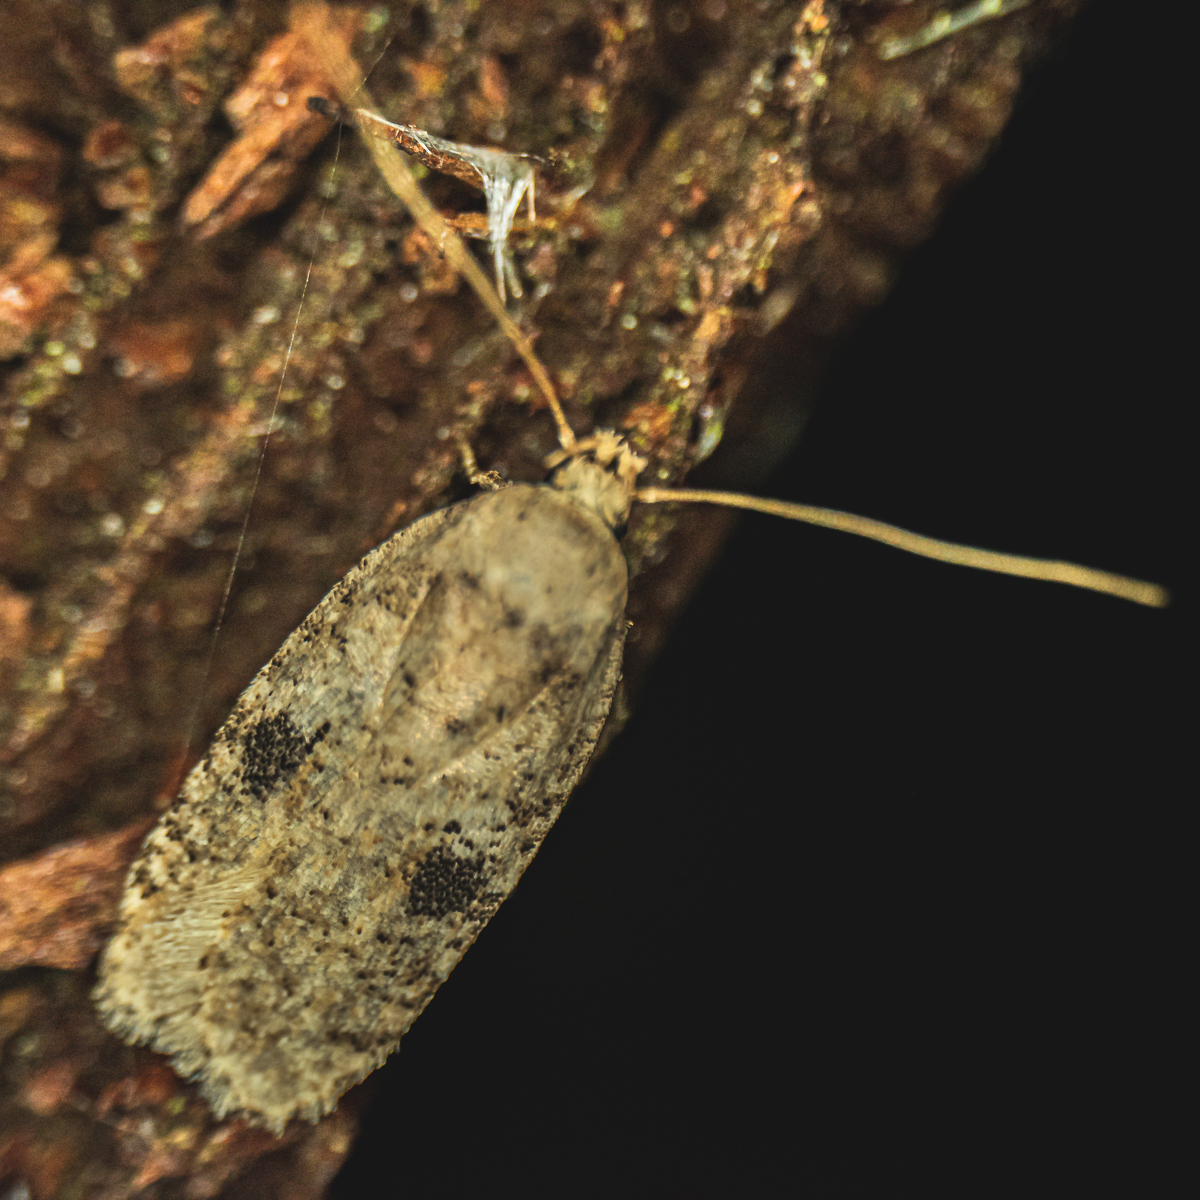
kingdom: Animalia
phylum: Arthropoda
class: Insecta
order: Lepidoptera
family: Depressariidae
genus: Agonopterix
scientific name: Agonopterix propinquella
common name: Black-spot flat-body
